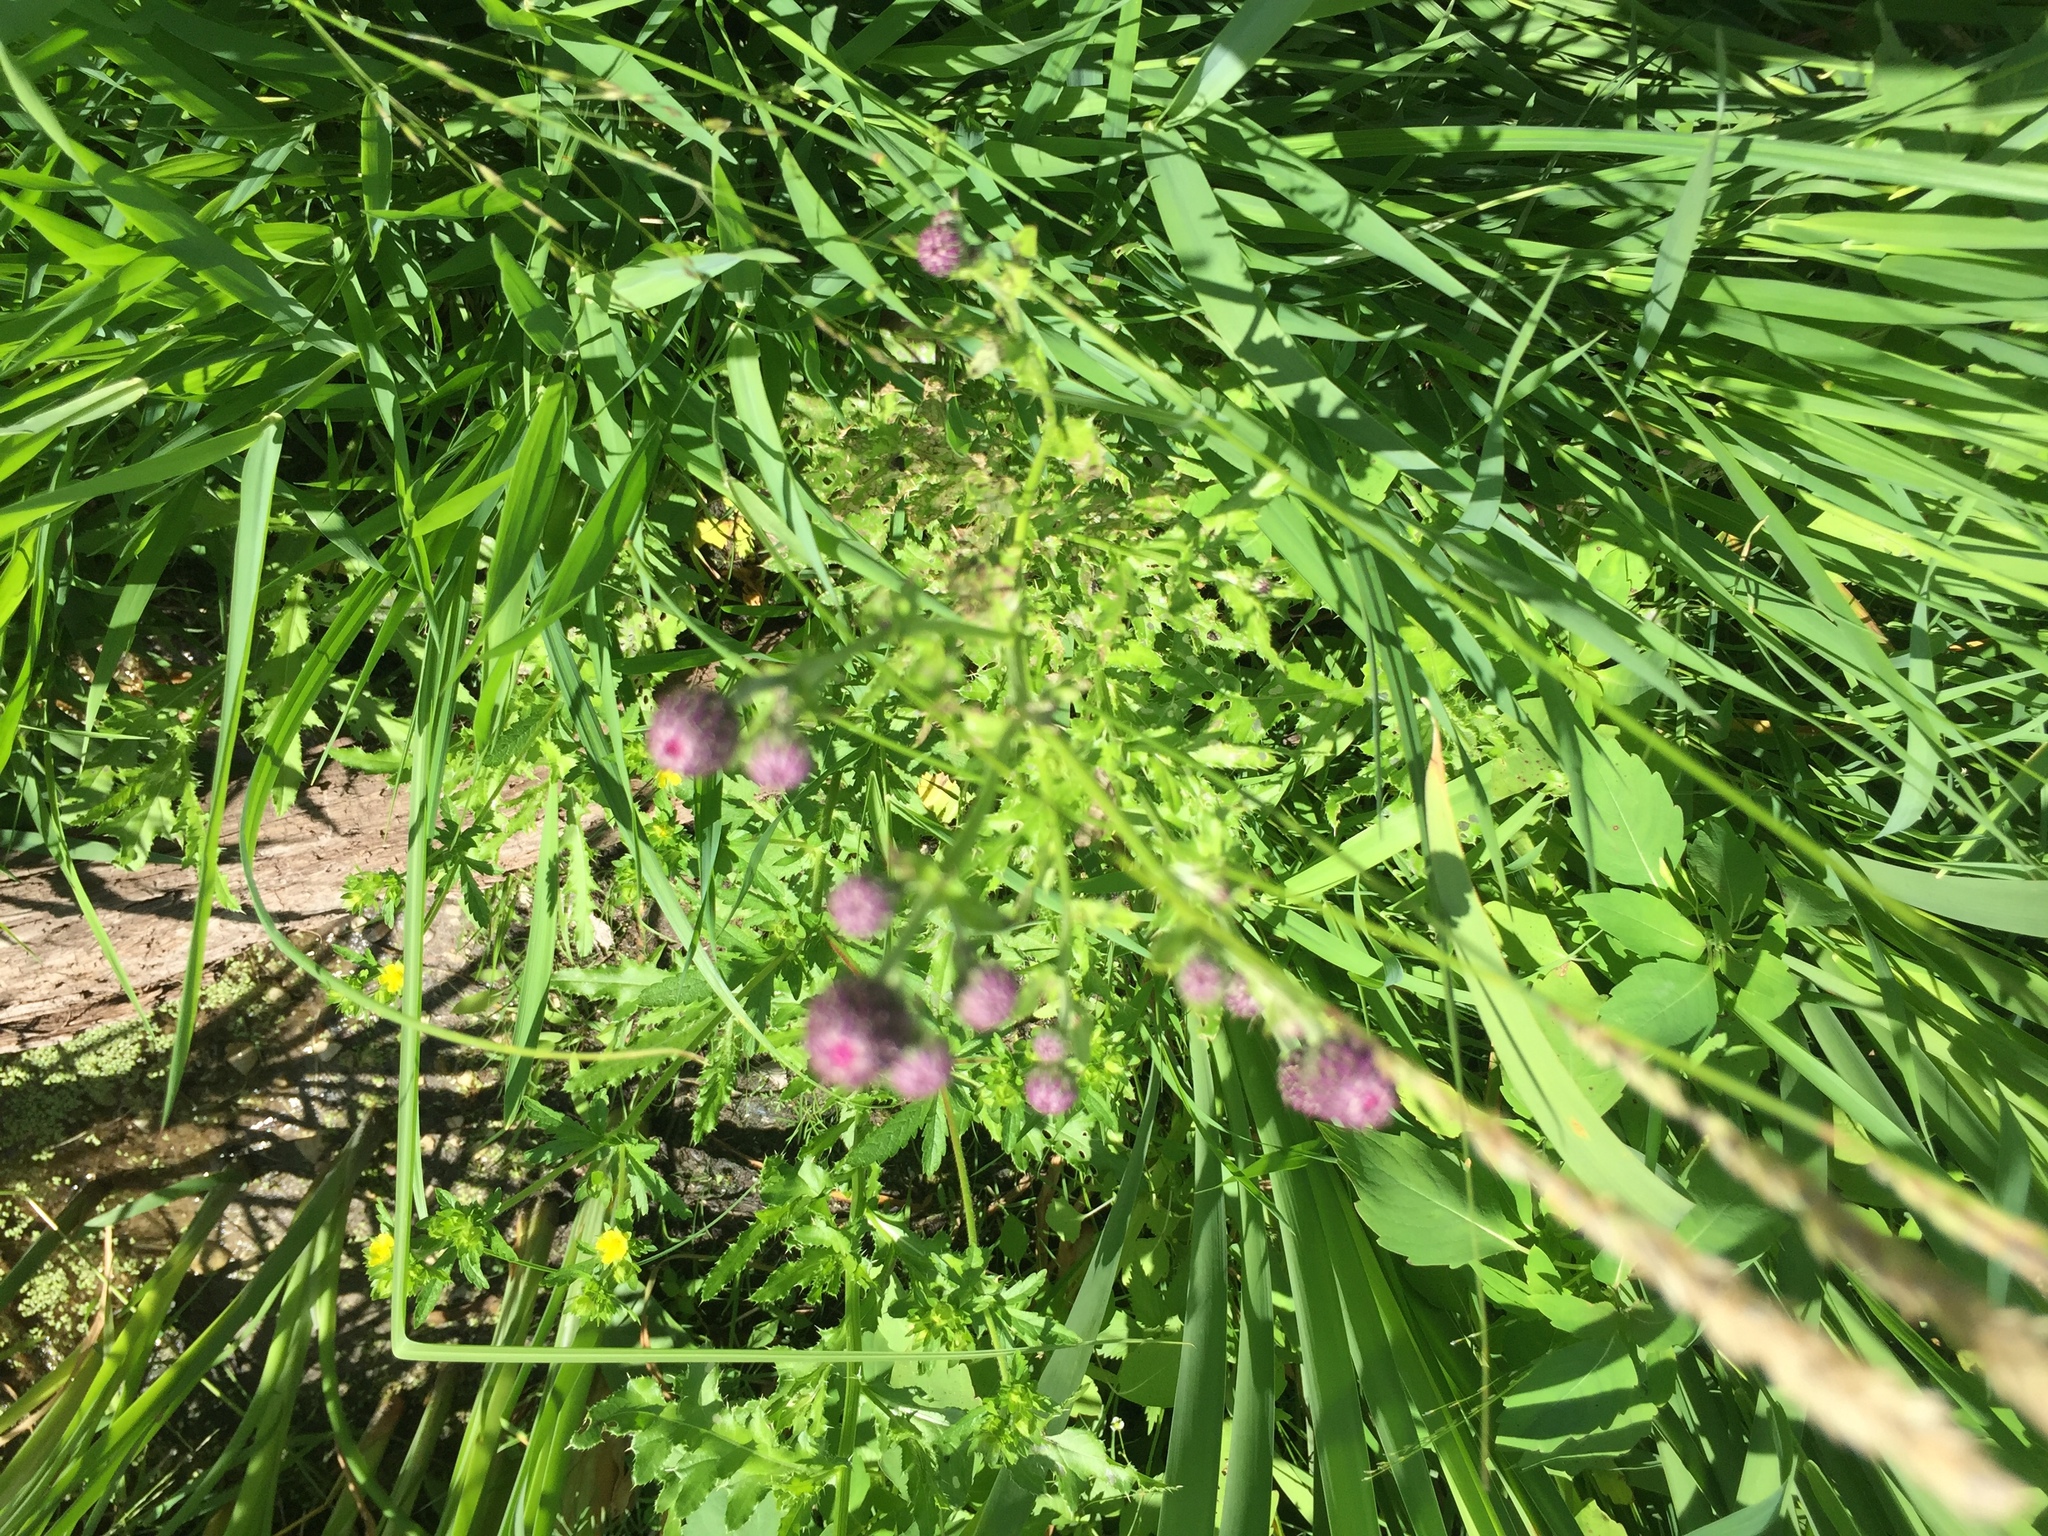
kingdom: Plantae
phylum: Tracheophyta
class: Magnoliopsida
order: Asterales
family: Asteraceae
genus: Cirsium
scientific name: Cirsium arvense
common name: Creeping thistle
